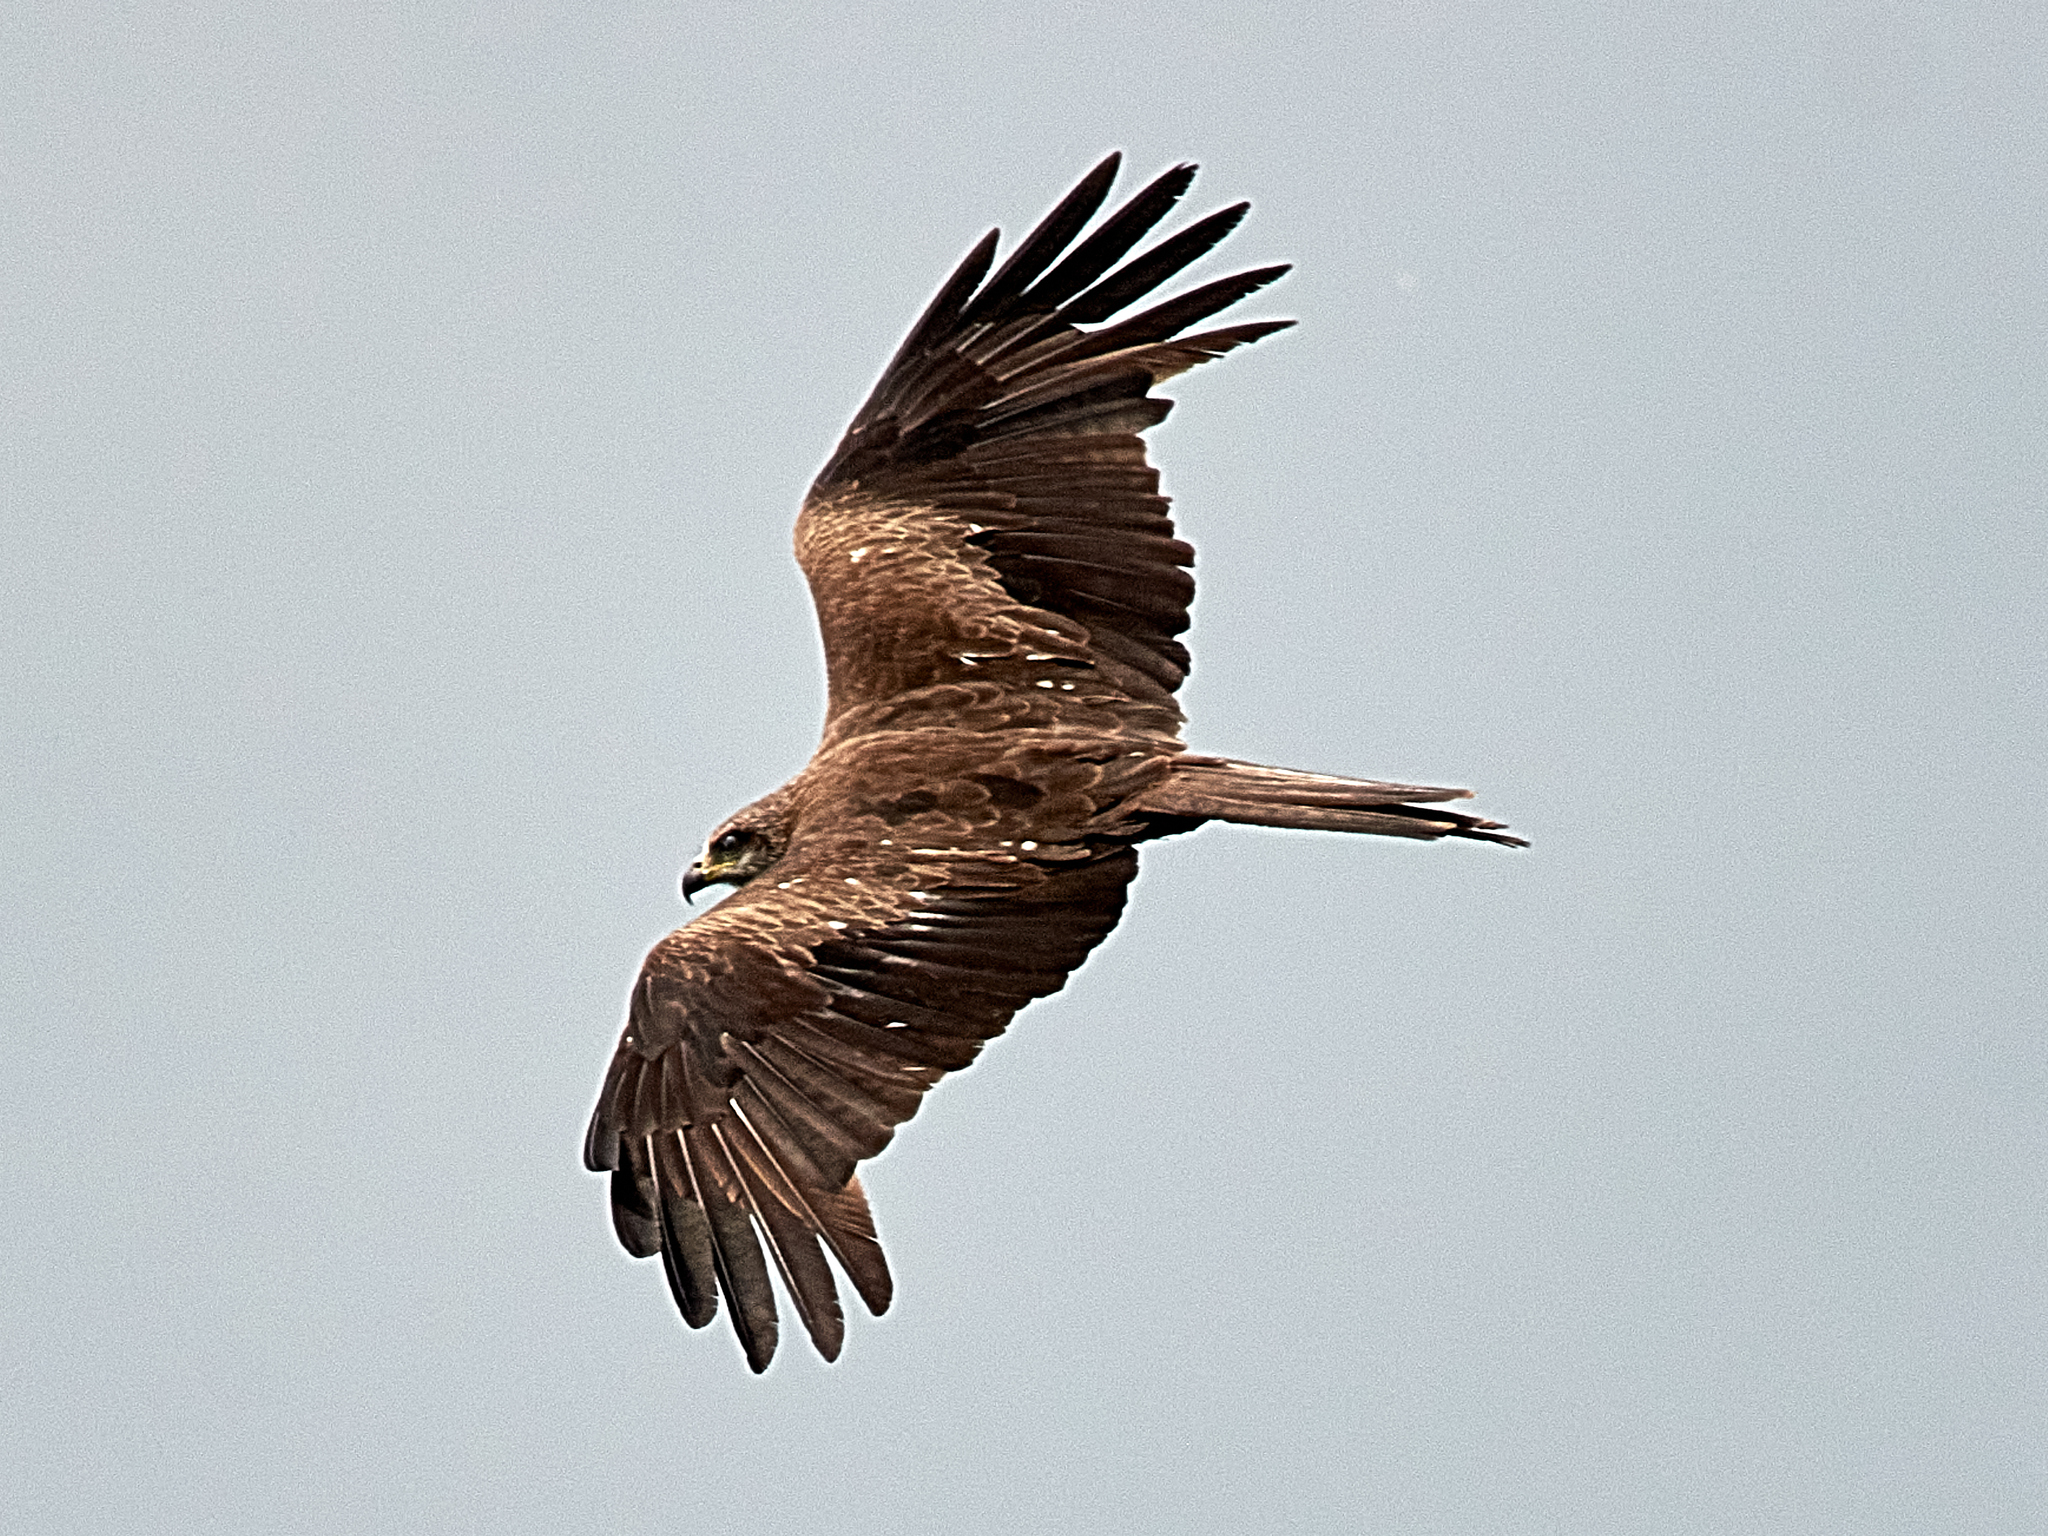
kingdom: Animalia
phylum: Chordata
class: Aves
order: Accipitriformes
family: Accipitridae
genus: Milvus
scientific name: Milvus migrans
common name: Black kite
